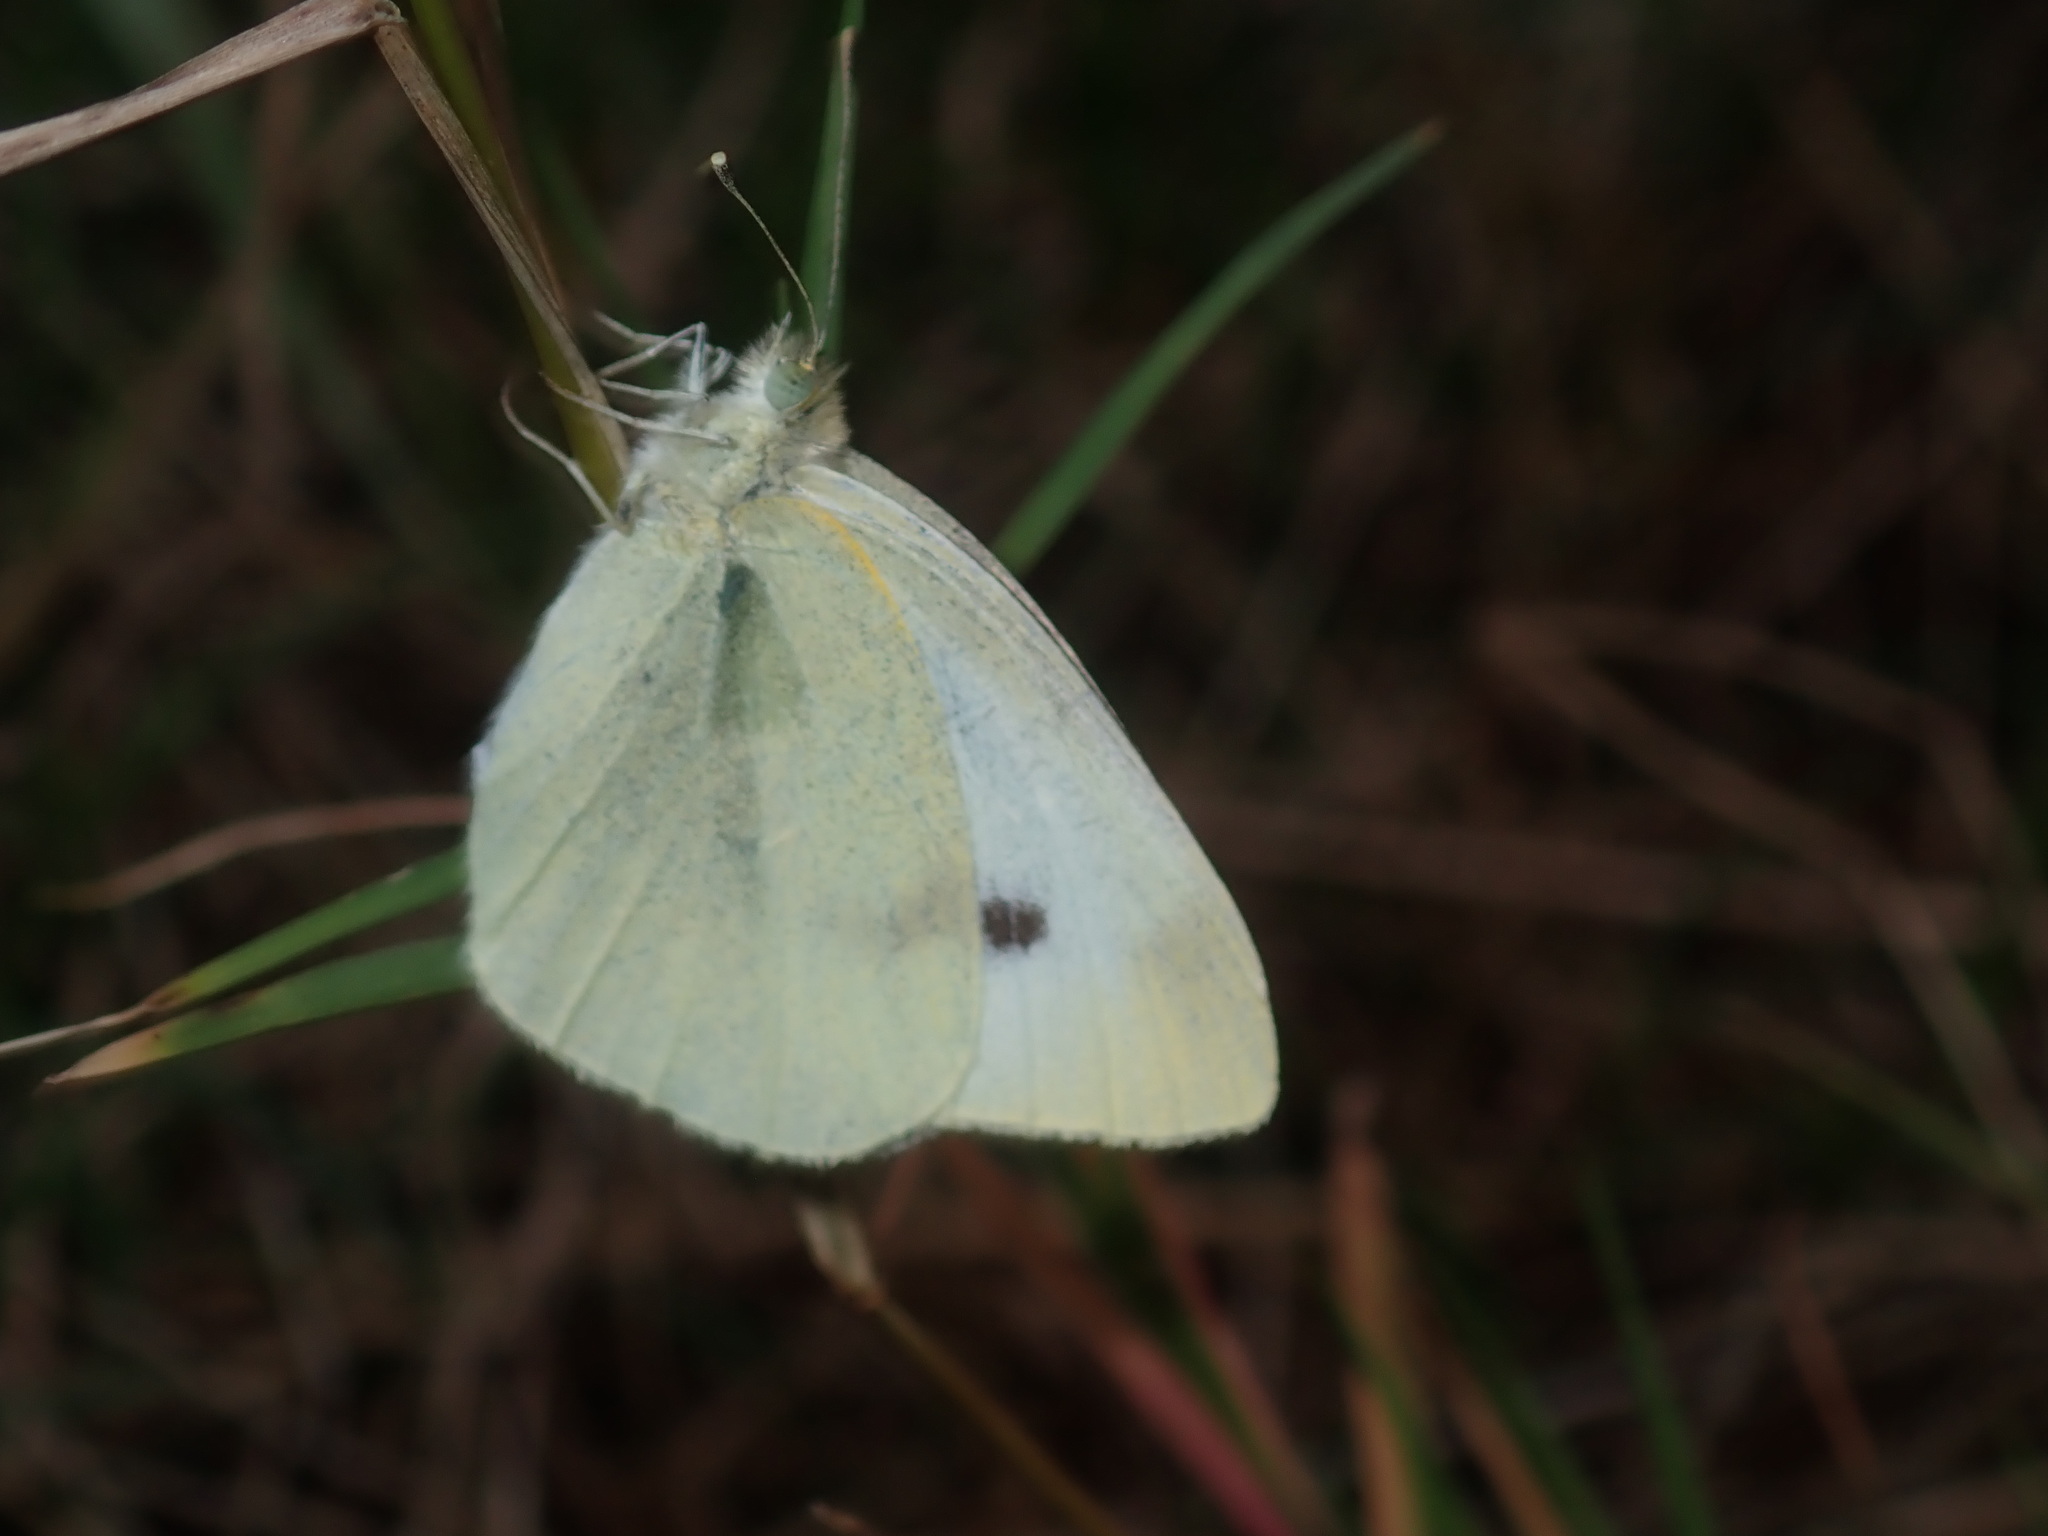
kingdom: Animalia
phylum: Arthropoda
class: Insecta
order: Lepidoptera
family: Pieridae
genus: Pieris
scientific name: Pieris rapae
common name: Small white
